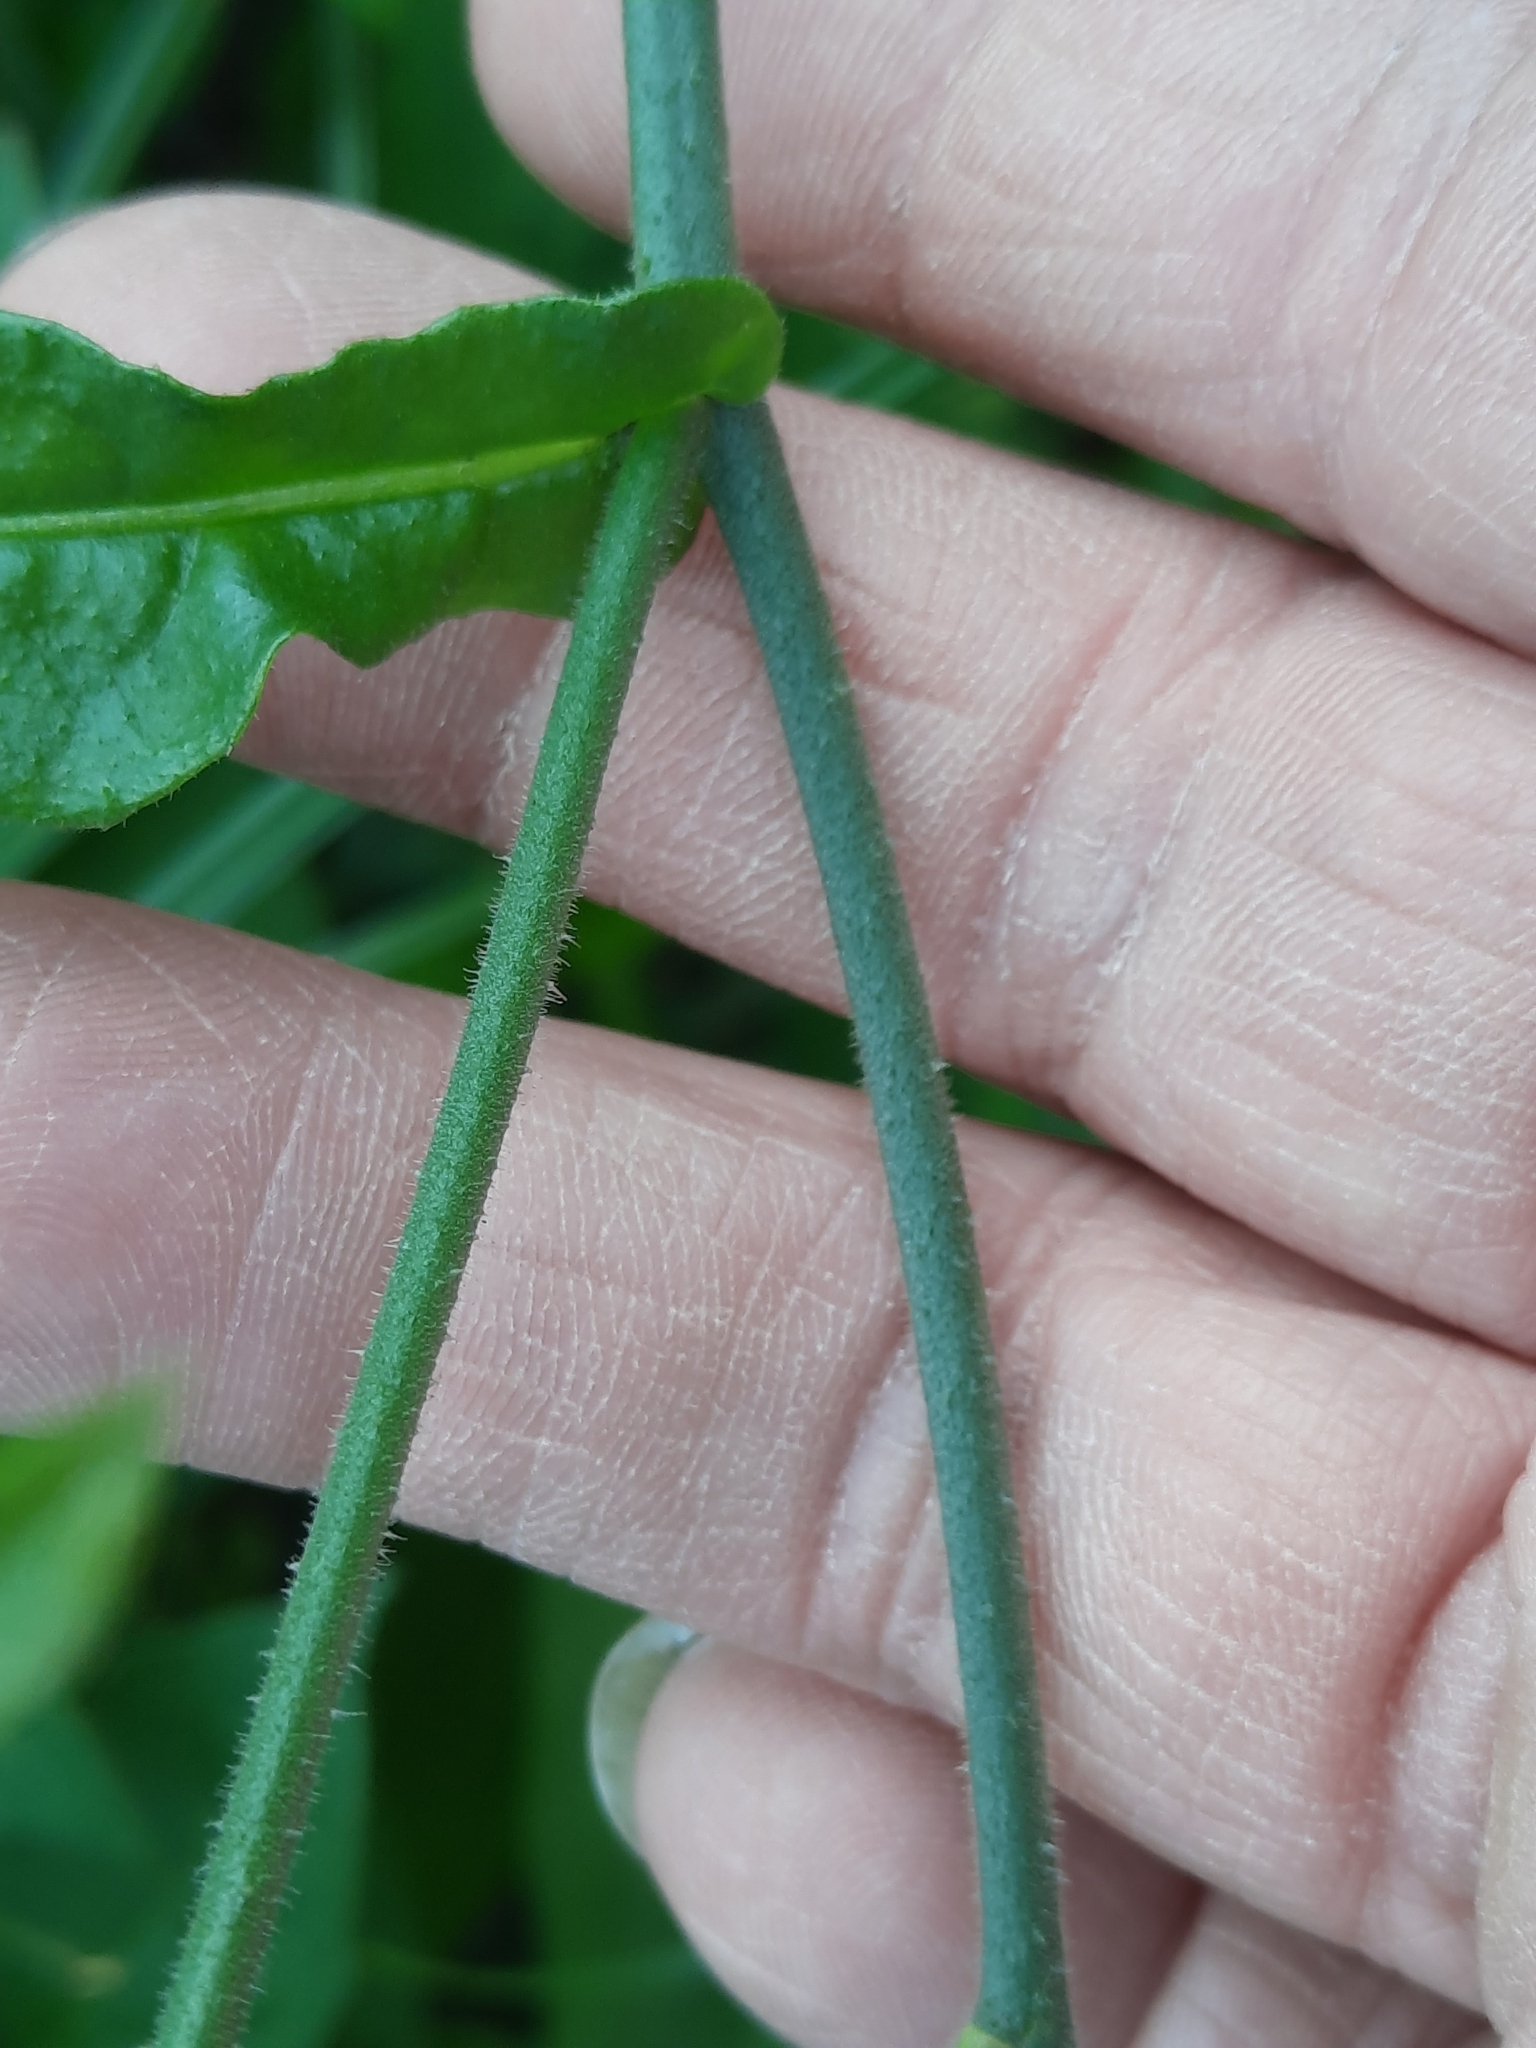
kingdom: Plantae
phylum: Tracheophyta
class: Magnoliopsida
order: Solanales
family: Solanaceae
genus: Nicotiana
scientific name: Nicotiana plumbaginifolia
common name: Tex-mex tobacco
